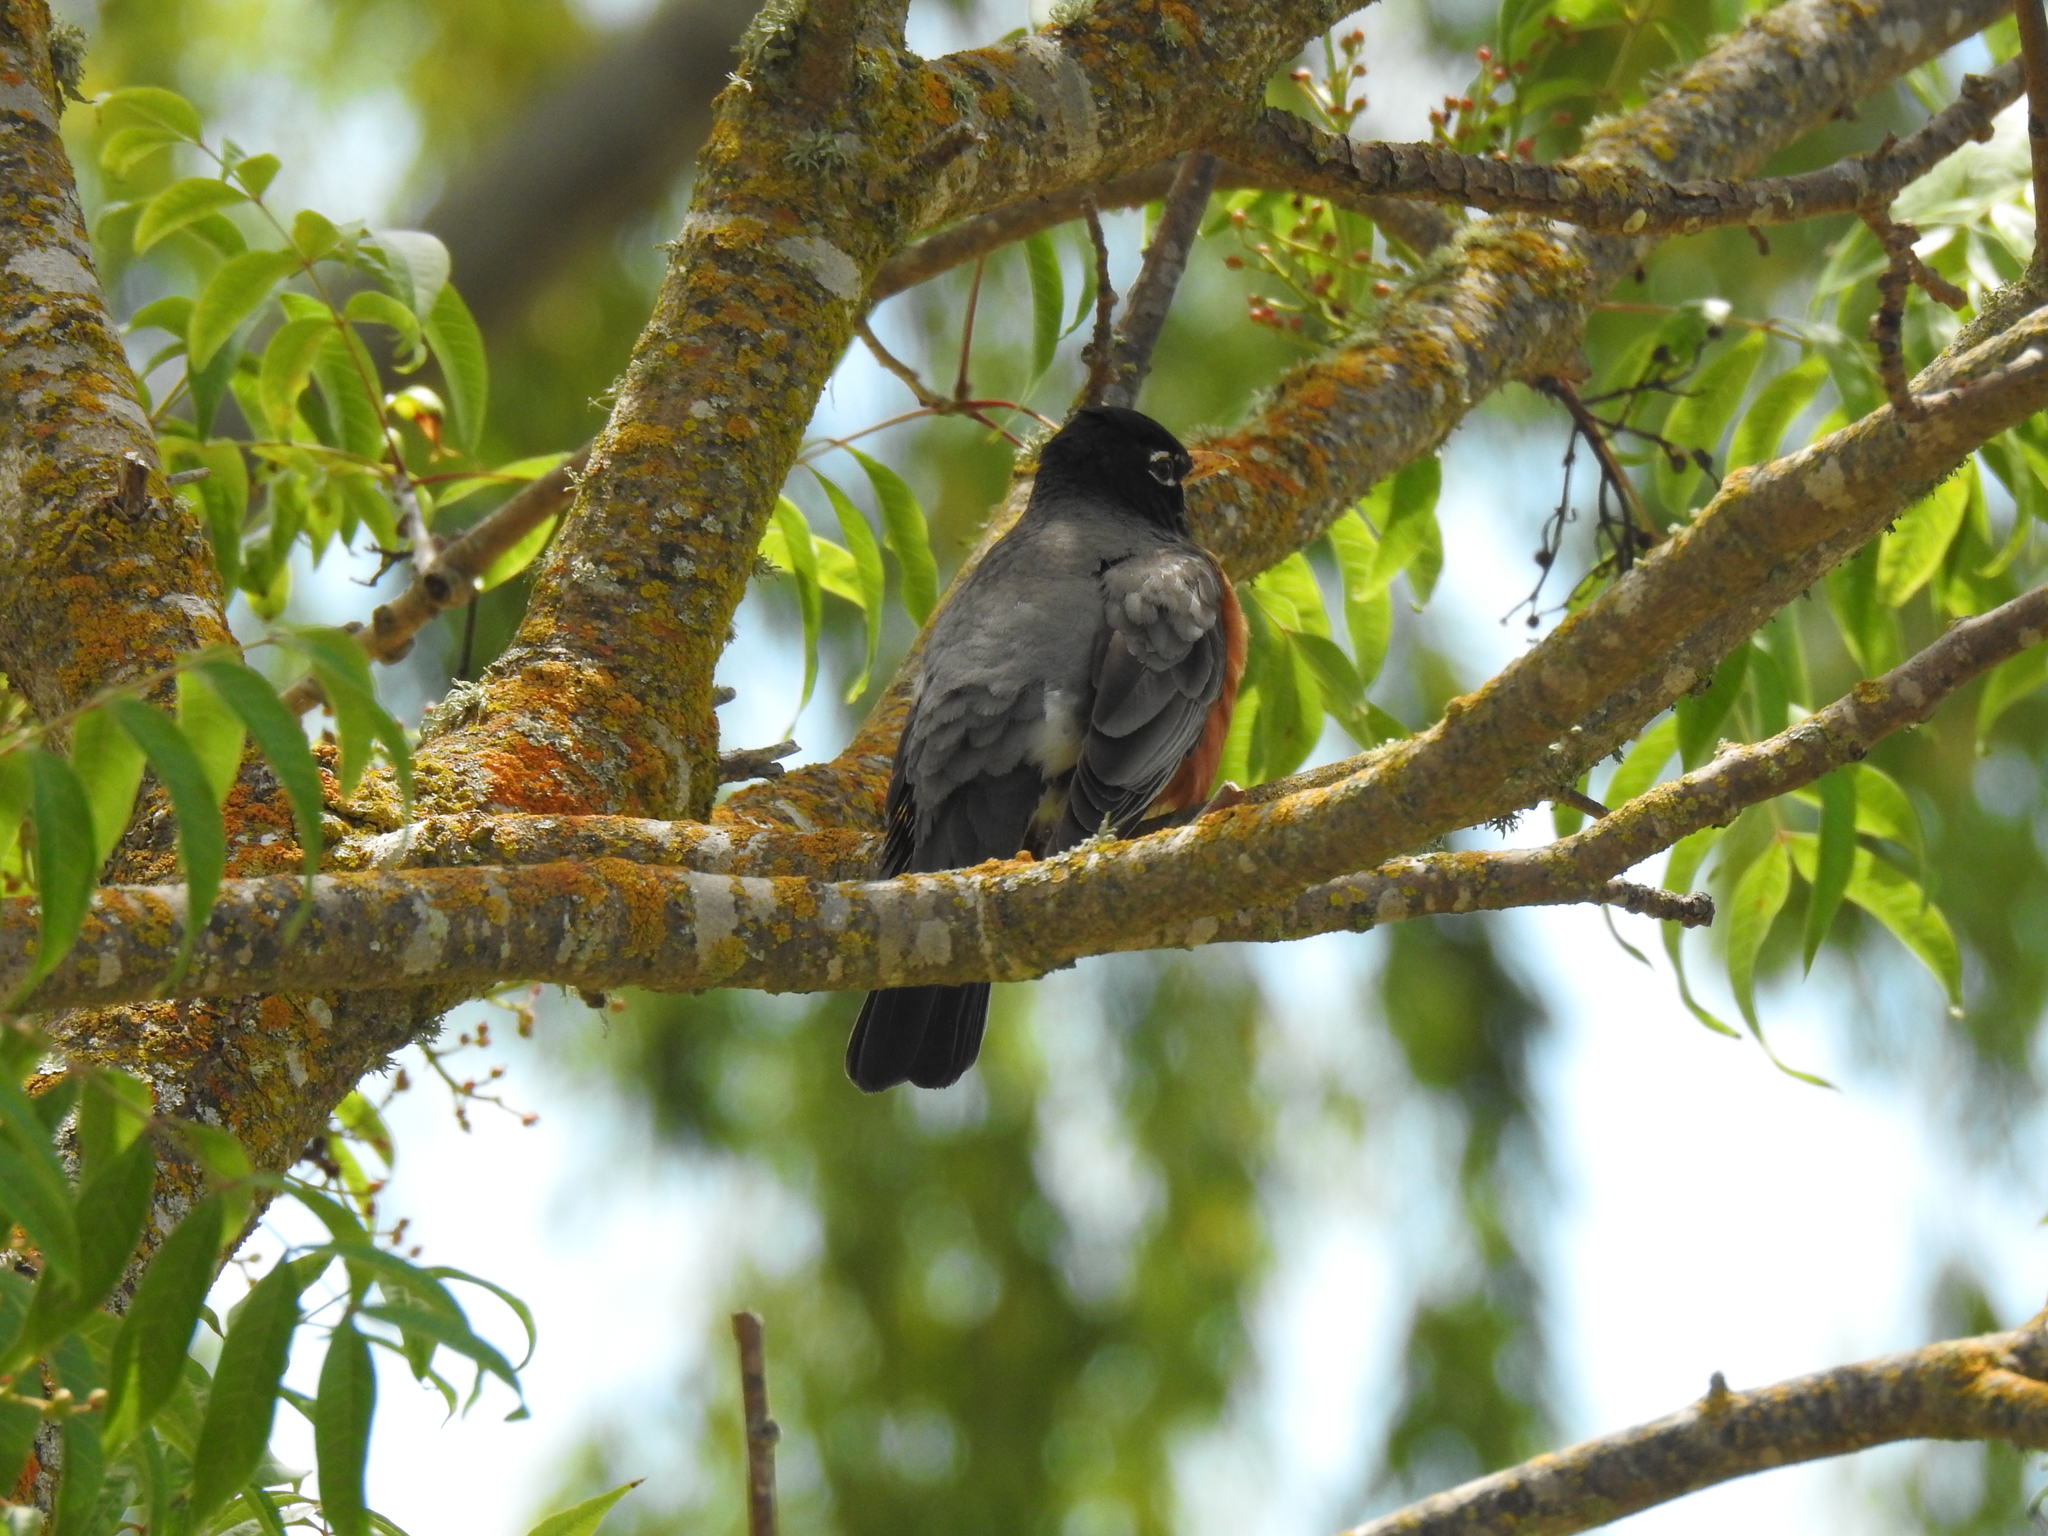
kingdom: Animalia
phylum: Chordata
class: Aves
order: Passeriformes
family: Turdidae
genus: Turdus
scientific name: Turdus migratorius
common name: American robin
